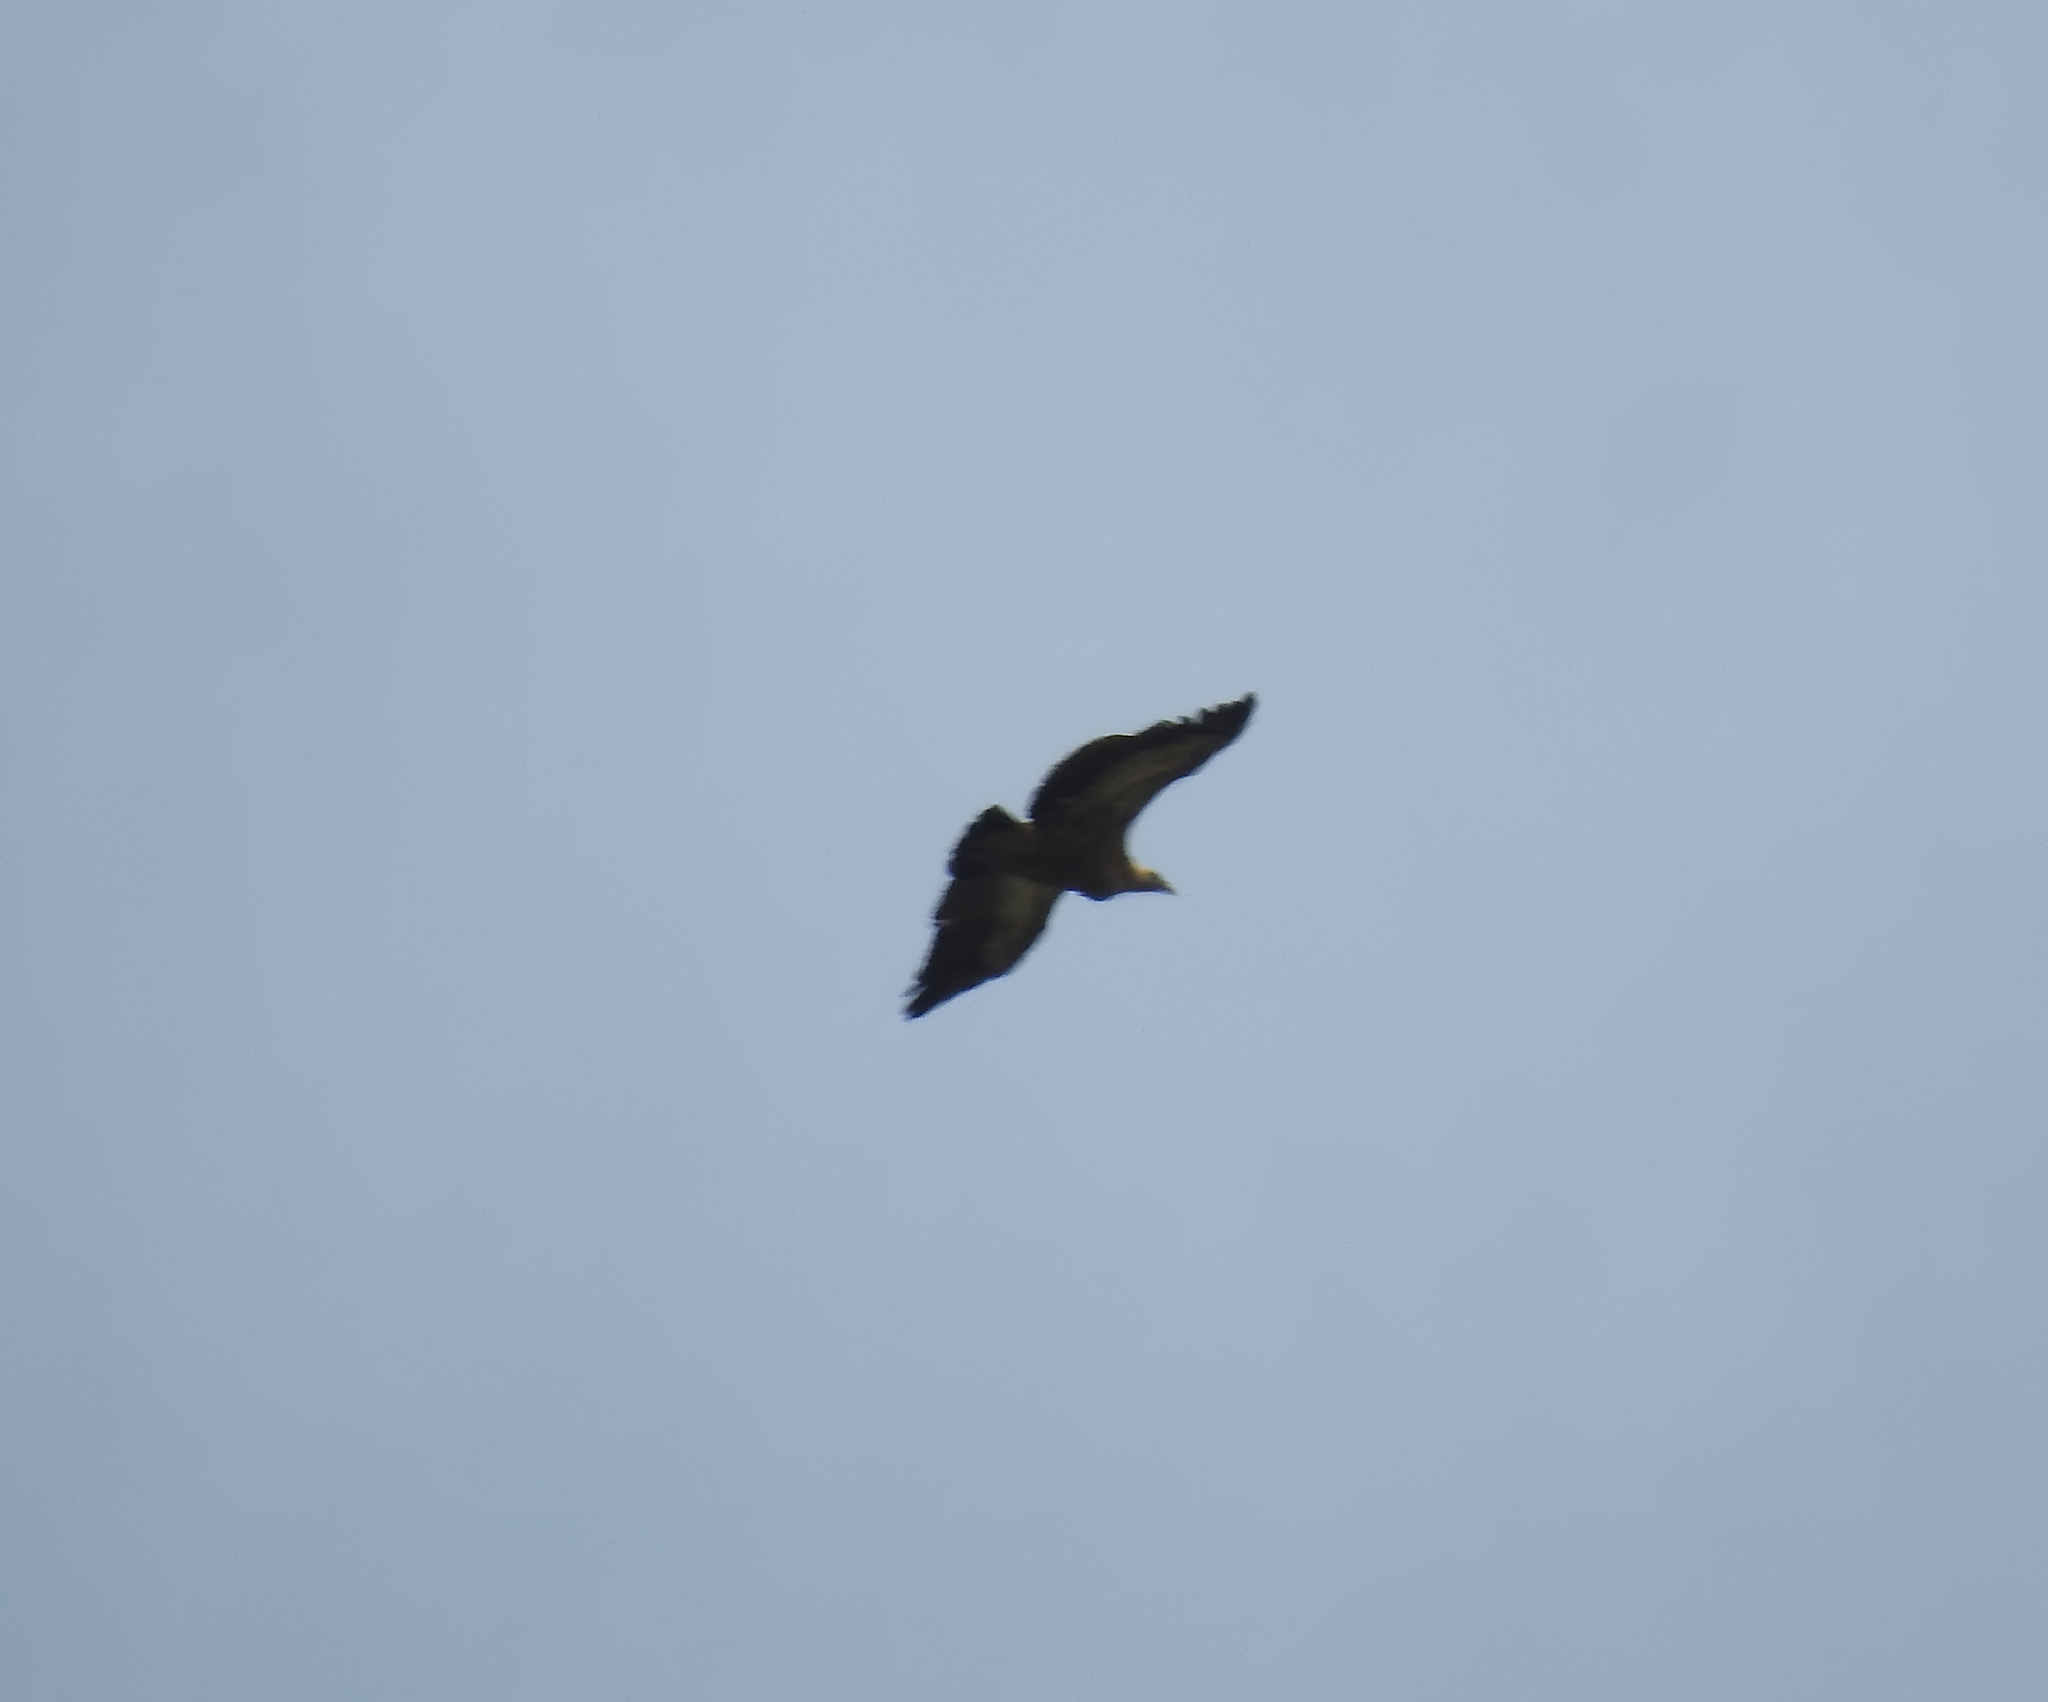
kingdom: Animalia
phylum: Chordata
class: Aves
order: Accipitriformes
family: Accipitridae
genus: Gyps
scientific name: Gyps fulvus
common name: Griffon vulture
